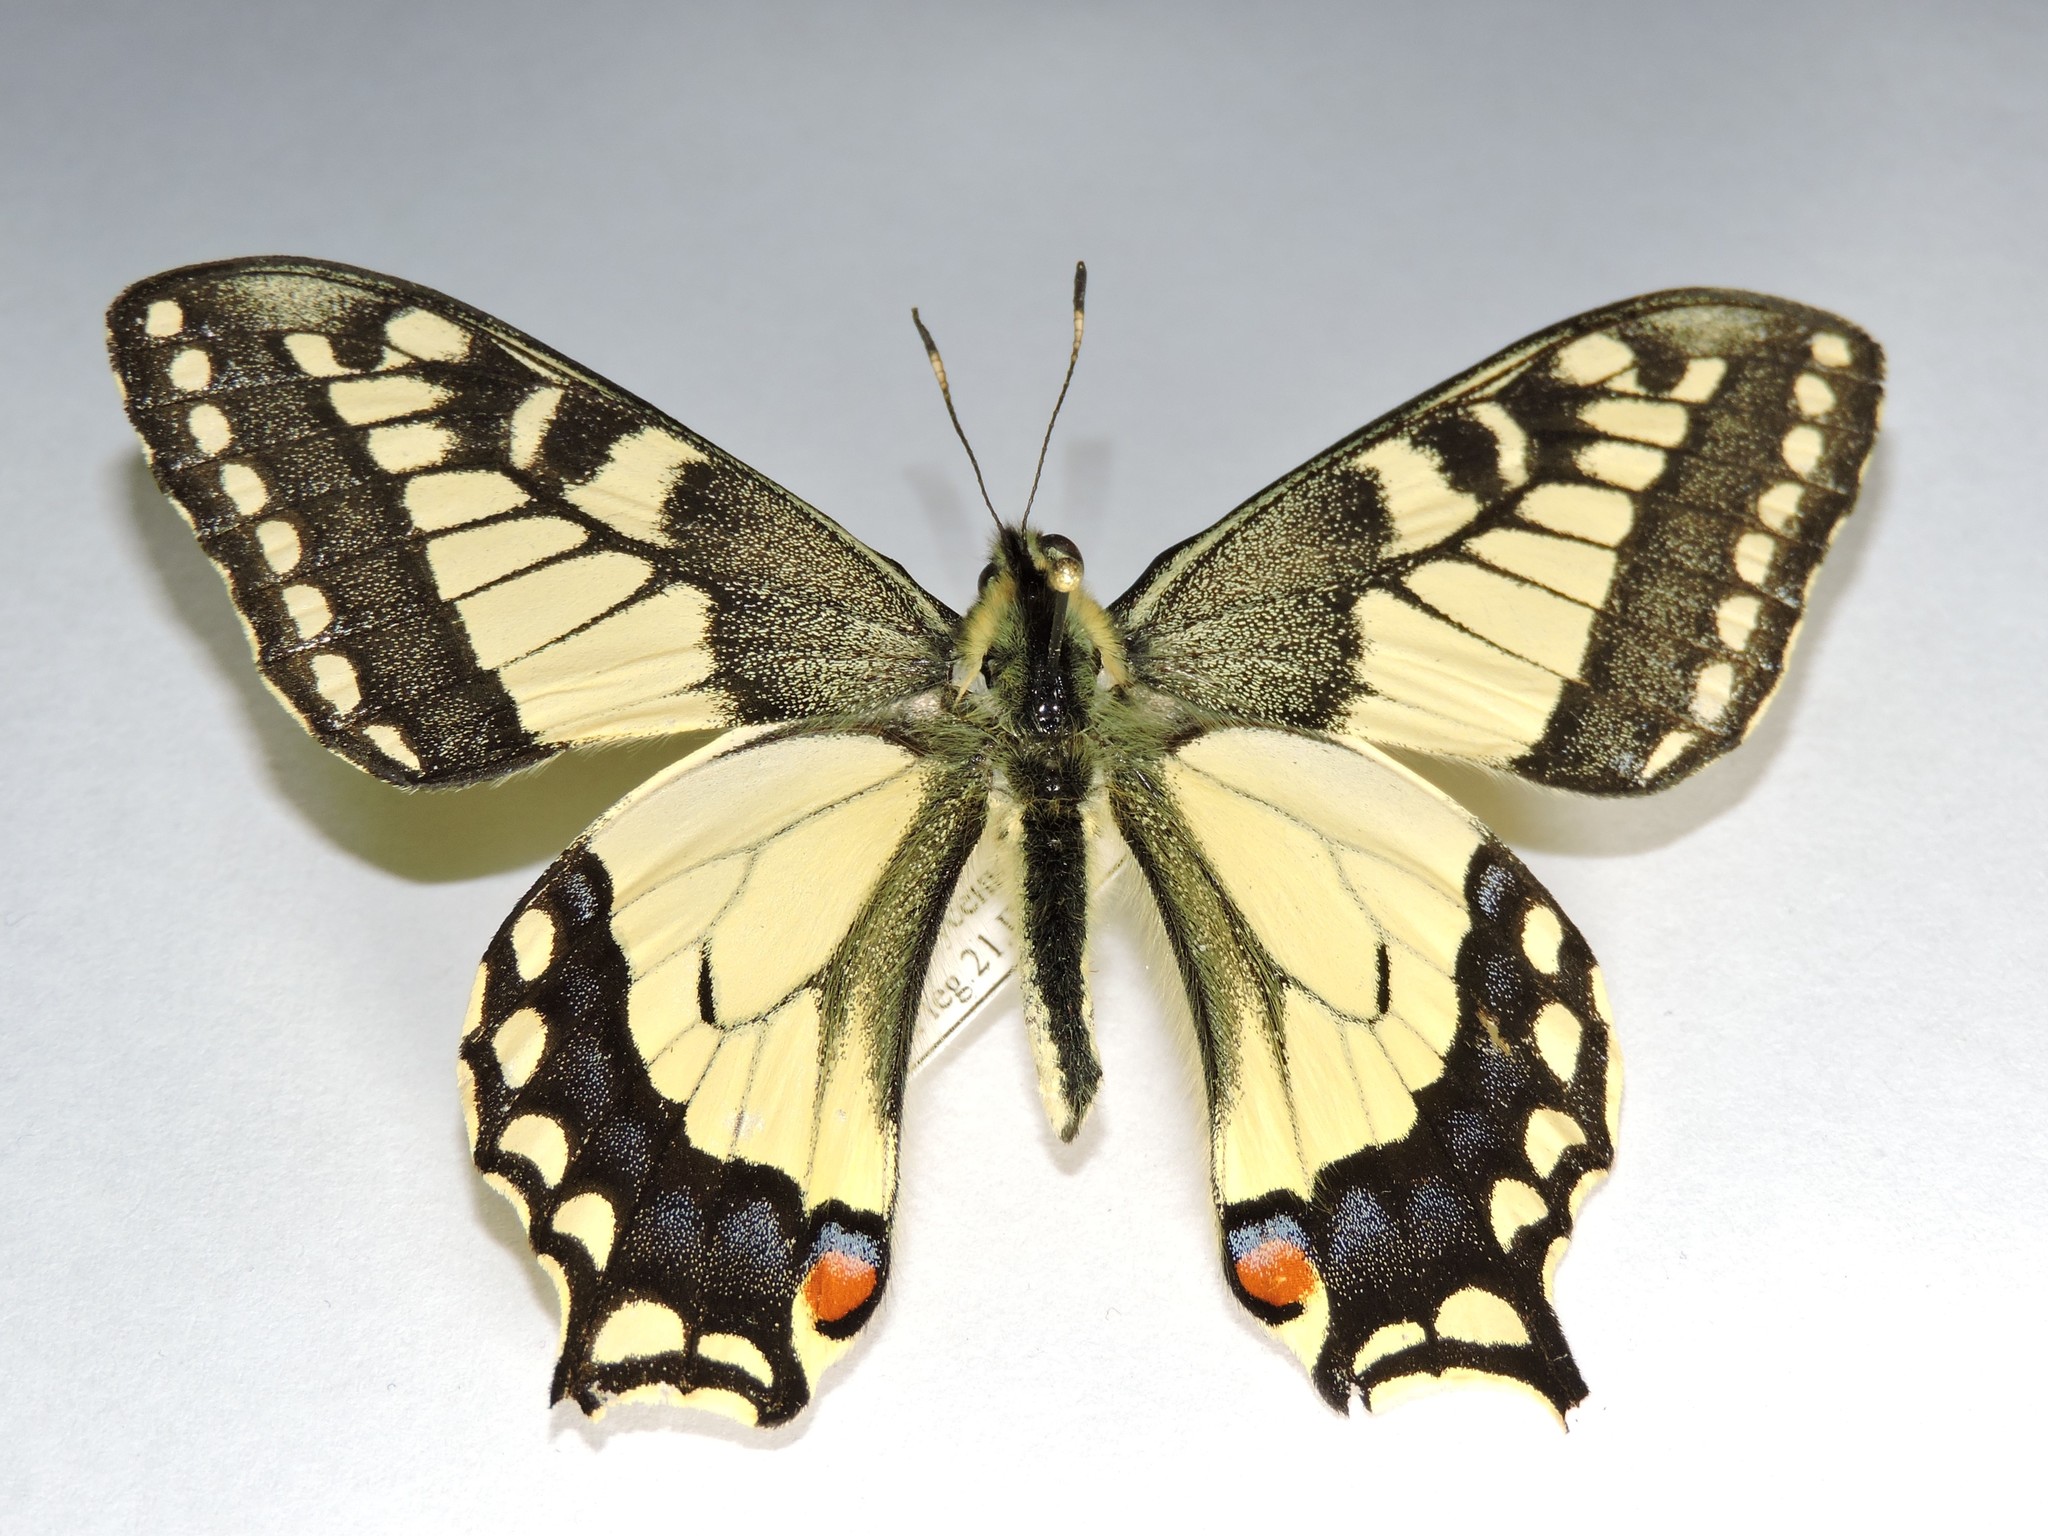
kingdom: Animalia
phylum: Arthropoda
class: Insecta
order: Lepidoptera
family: Papilionidae
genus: Papilio
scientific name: Papilio machaon
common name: Swallowtail
